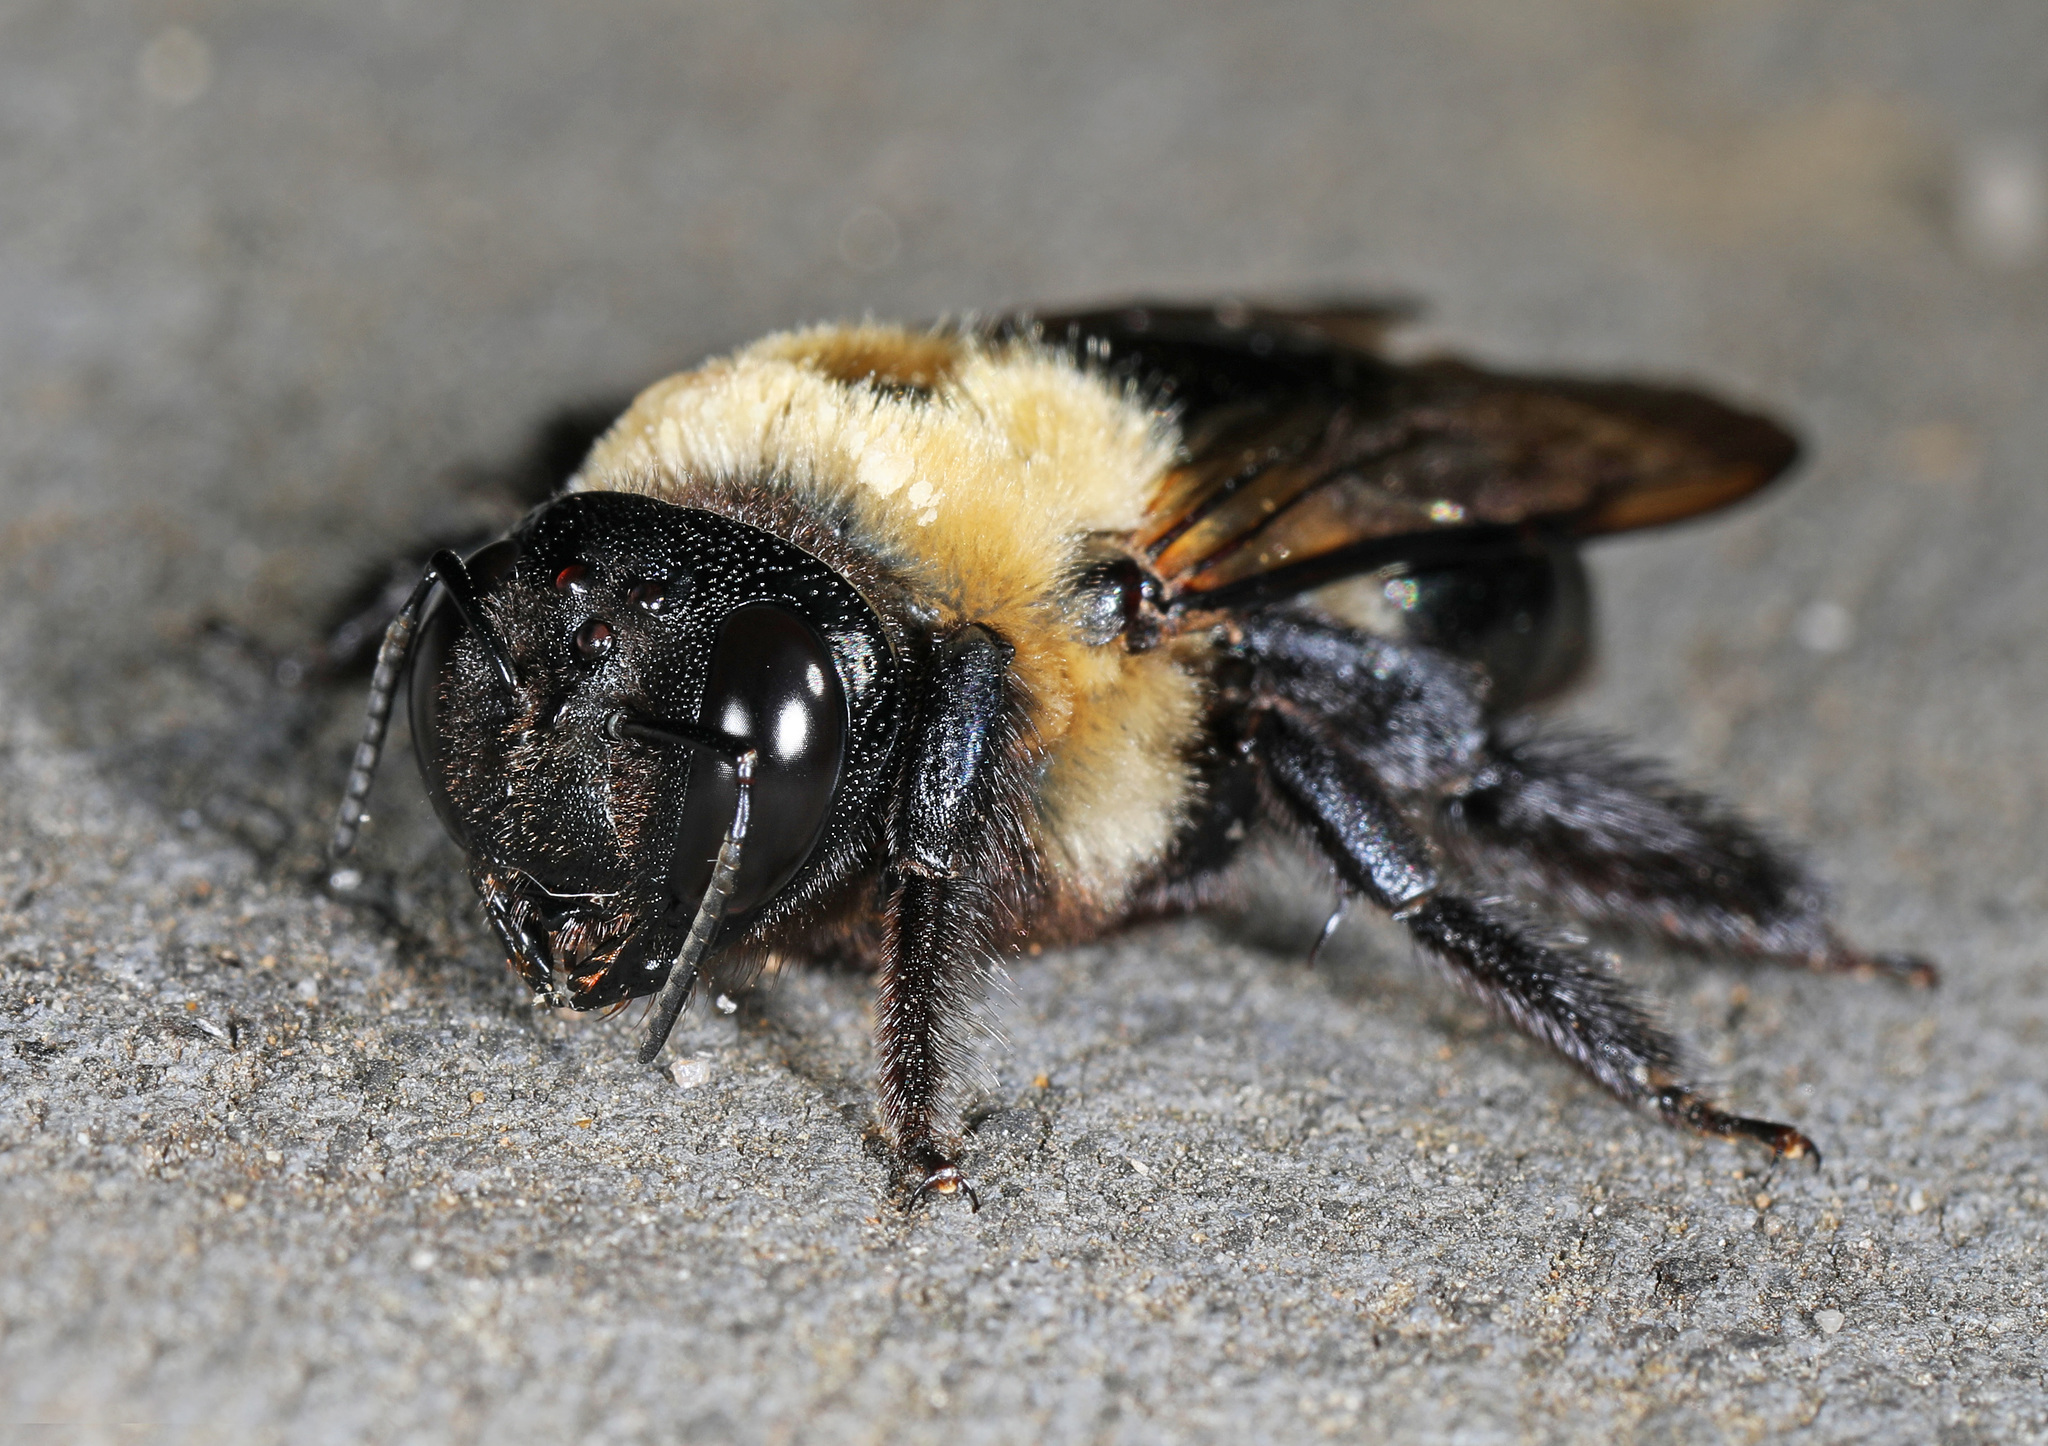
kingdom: Animalia
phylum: Arthropoda
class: Insecta
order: Hymenoptera
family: Apidae
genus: Xylocopa
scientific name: Xylocopa virginica
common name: Carpenter bee
